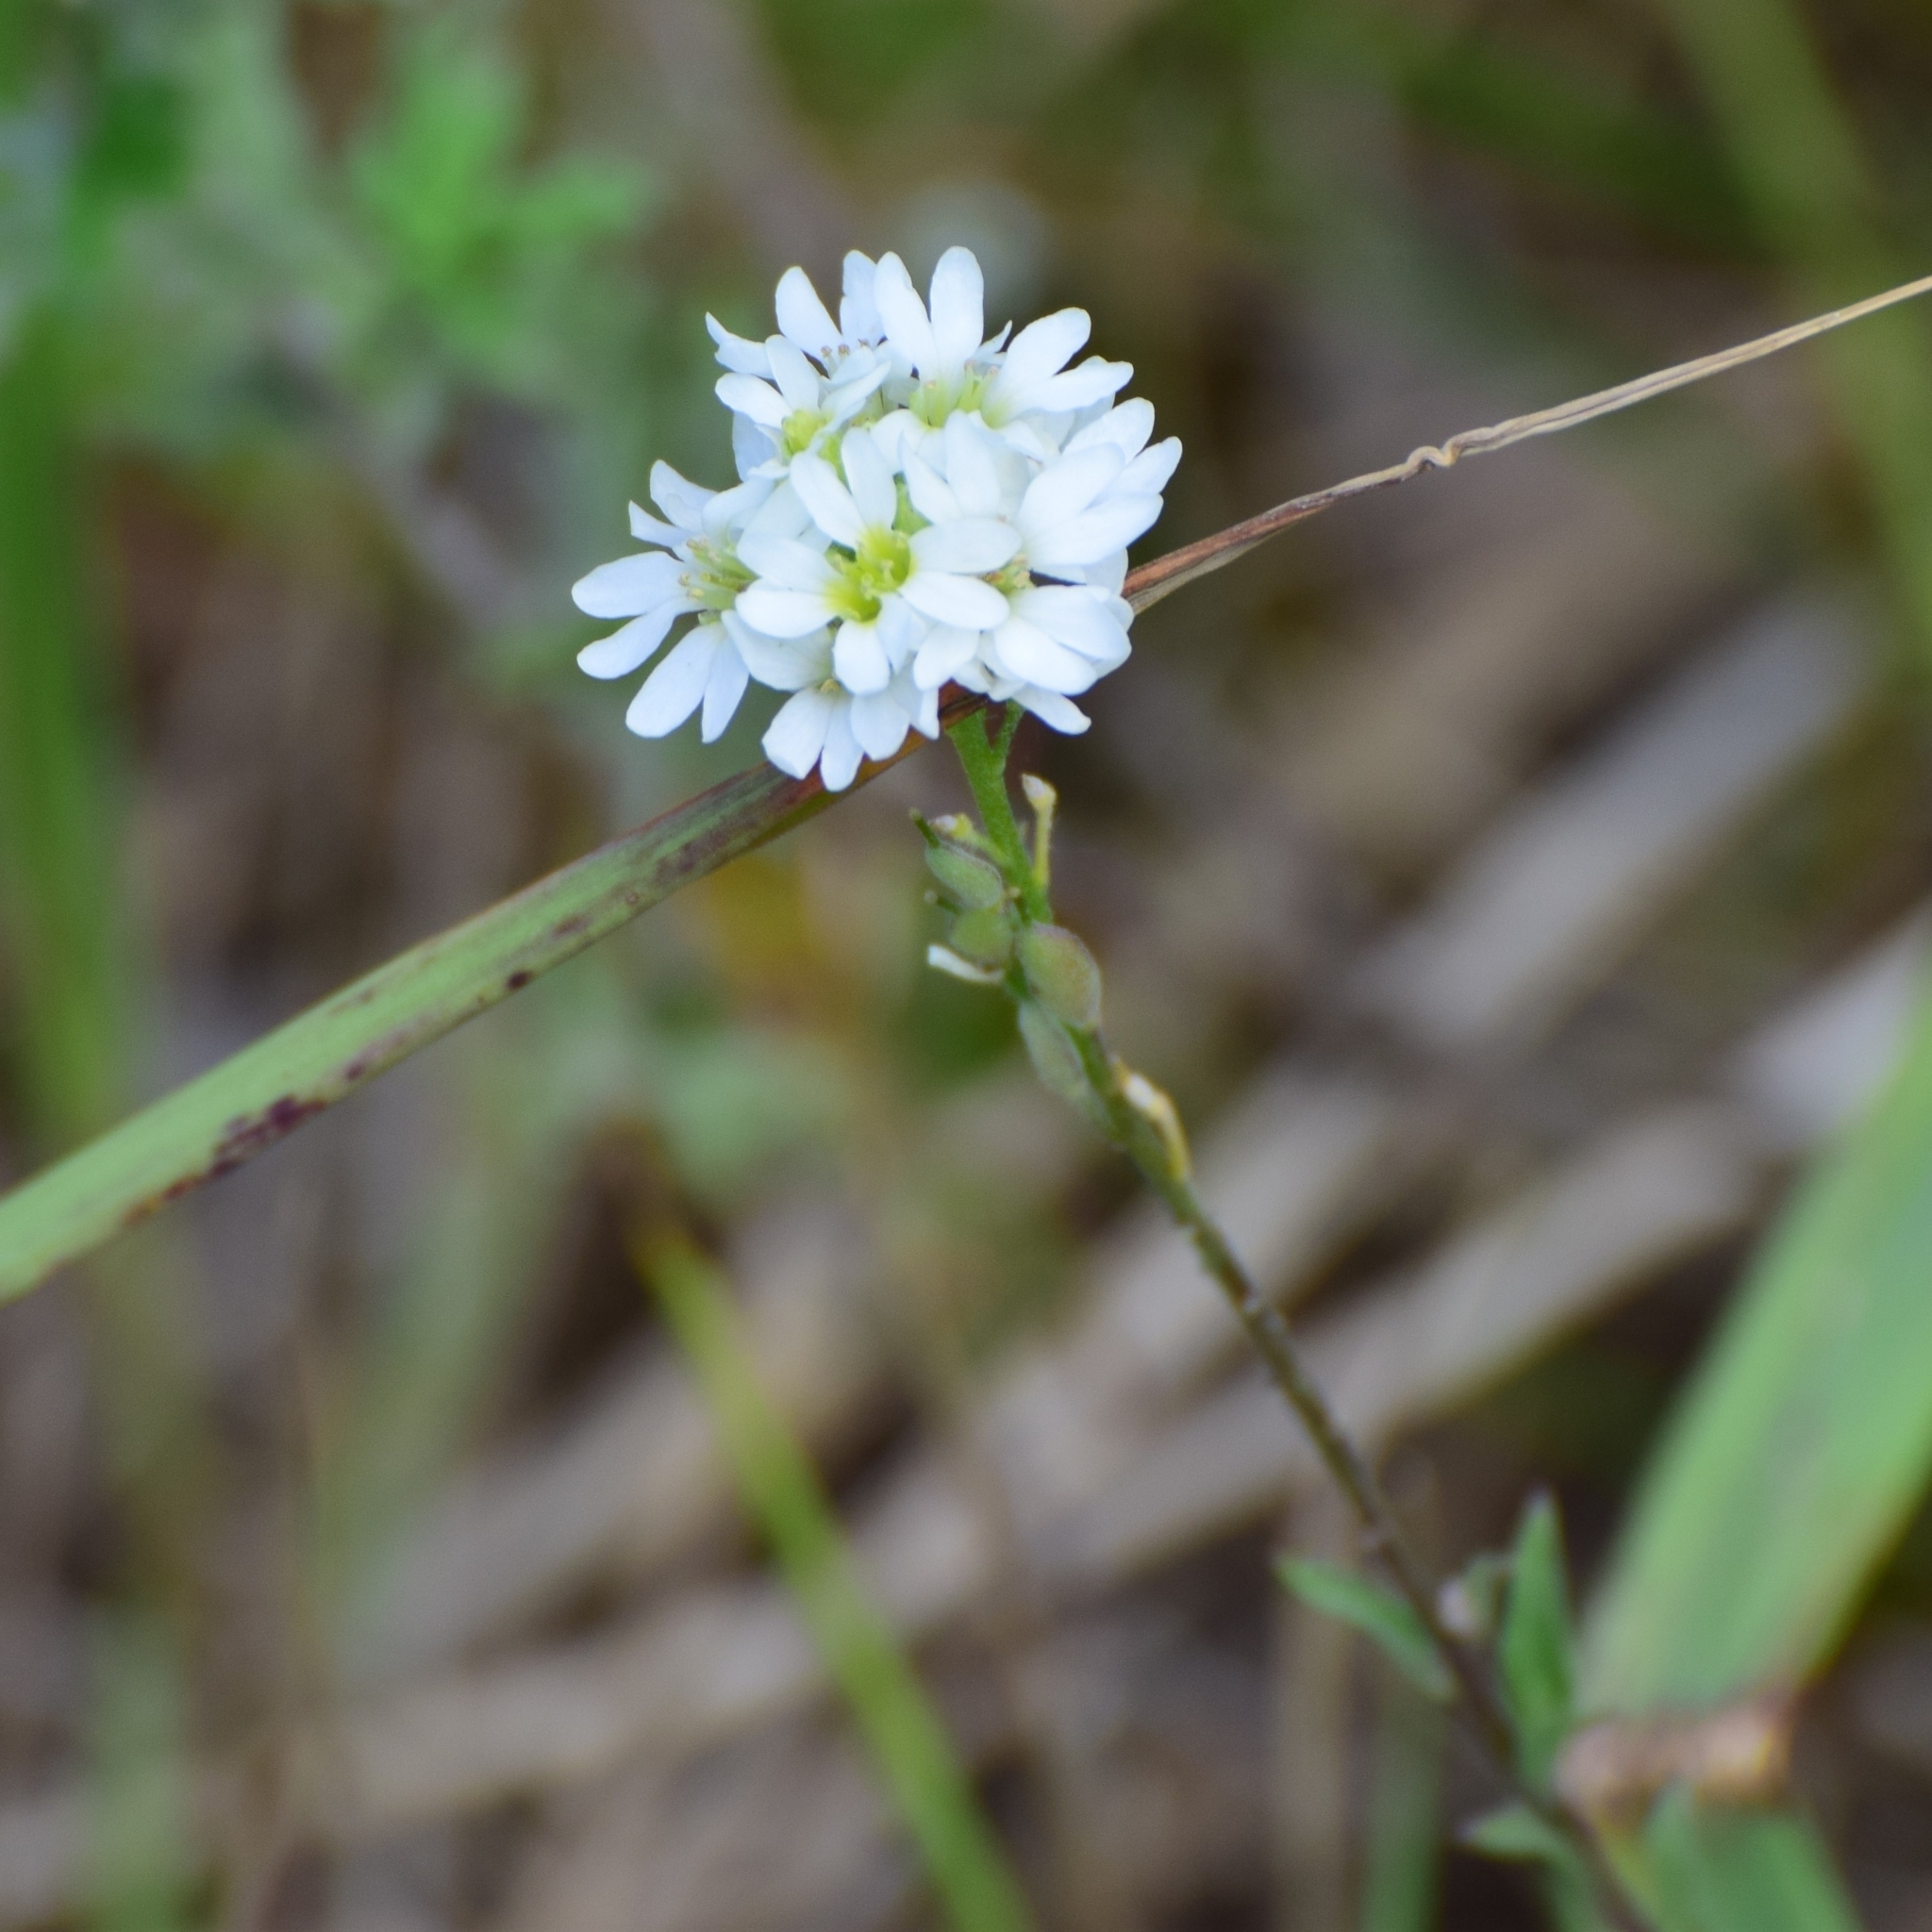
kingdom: Plantae
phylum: Tracheophyta
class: Magnoliopsida
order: Brassicales
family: Brassicaceae
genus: Berteroa
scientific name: Berteroa incana
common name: Hoary alison
